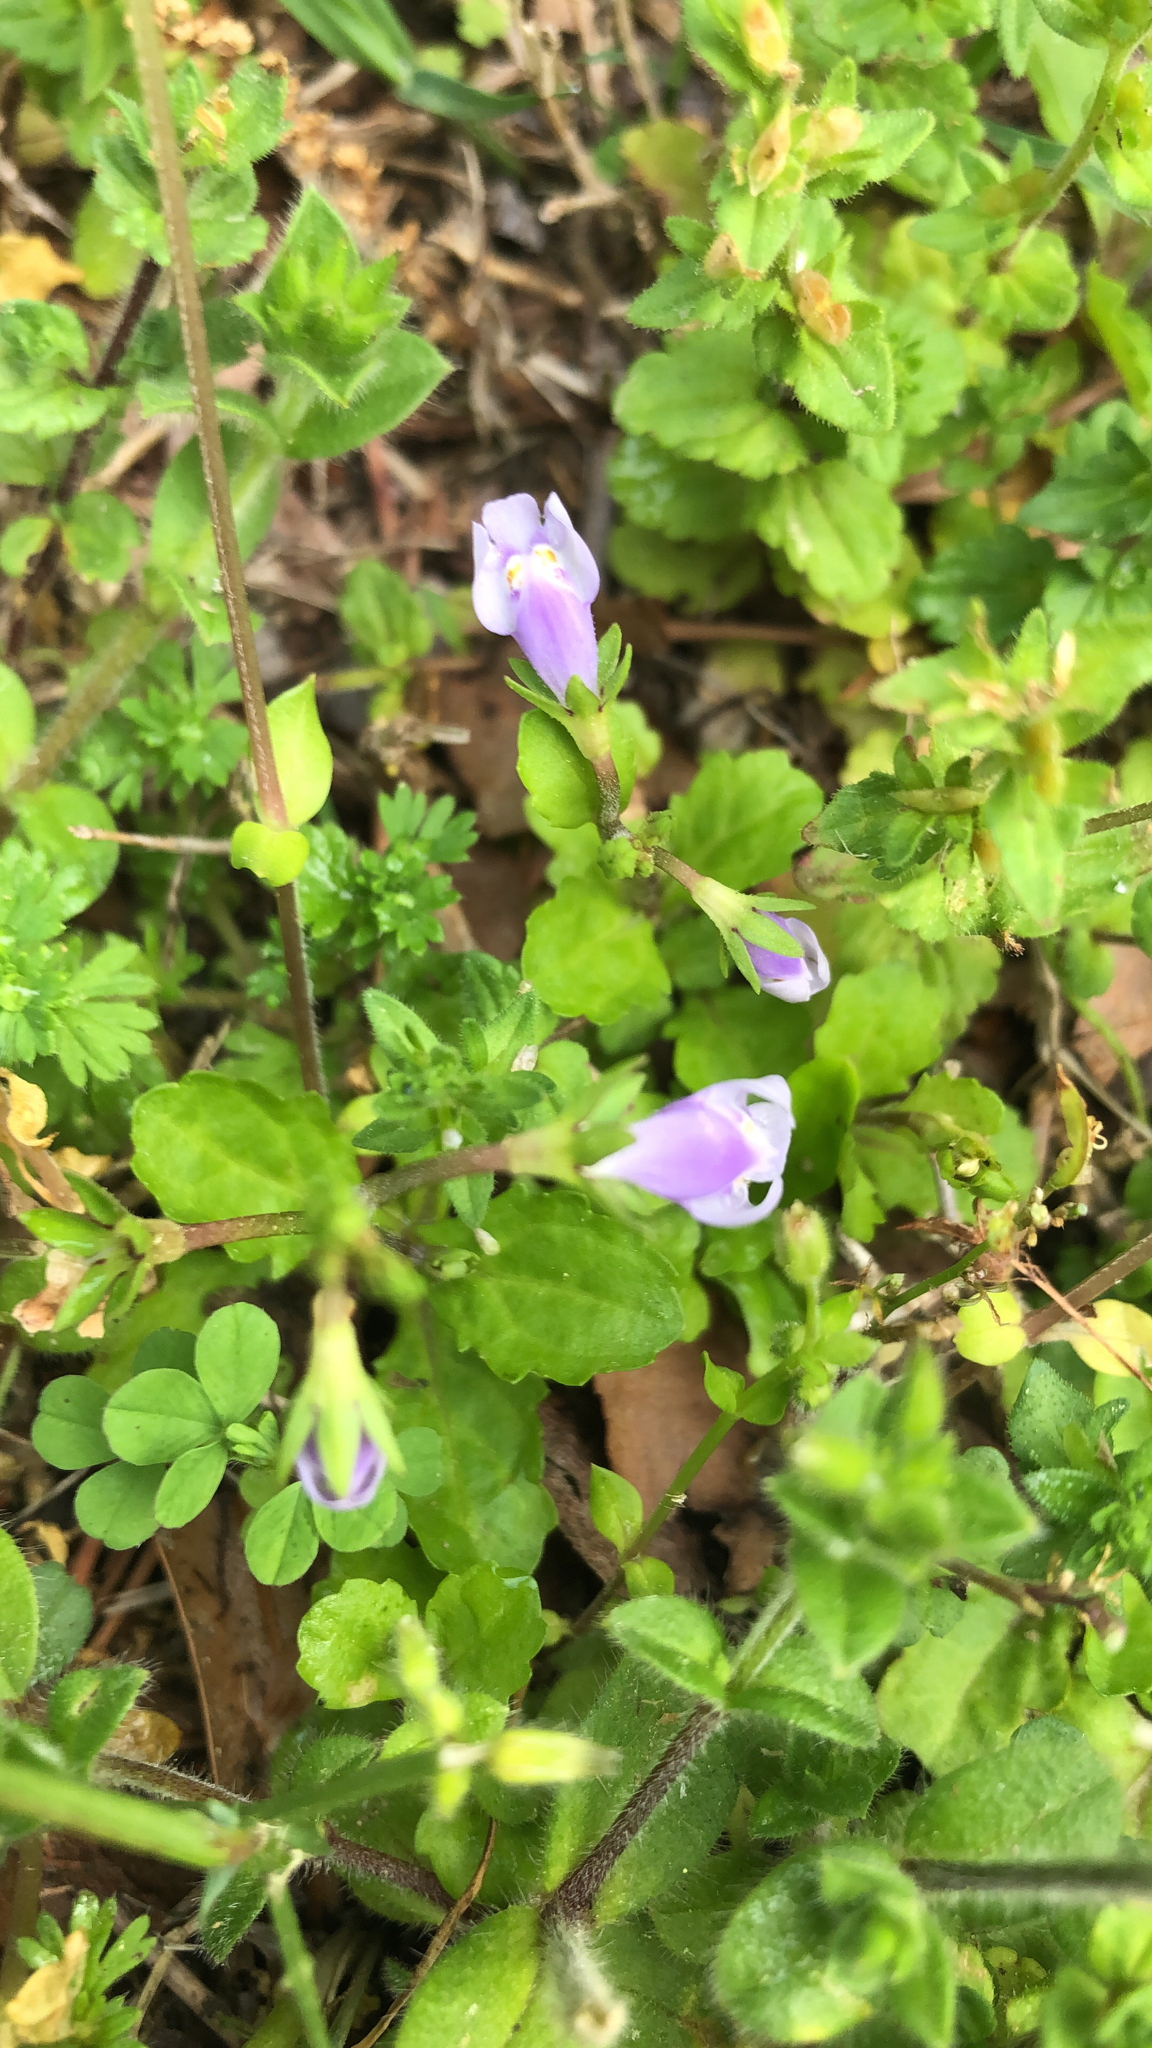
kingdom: Plantae
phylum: Tracheophyta
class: Magnoliopsida
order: Lamiales
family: Mazaceae
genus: Mazus
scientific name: Mazus pumilus
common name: Japanese mazus
